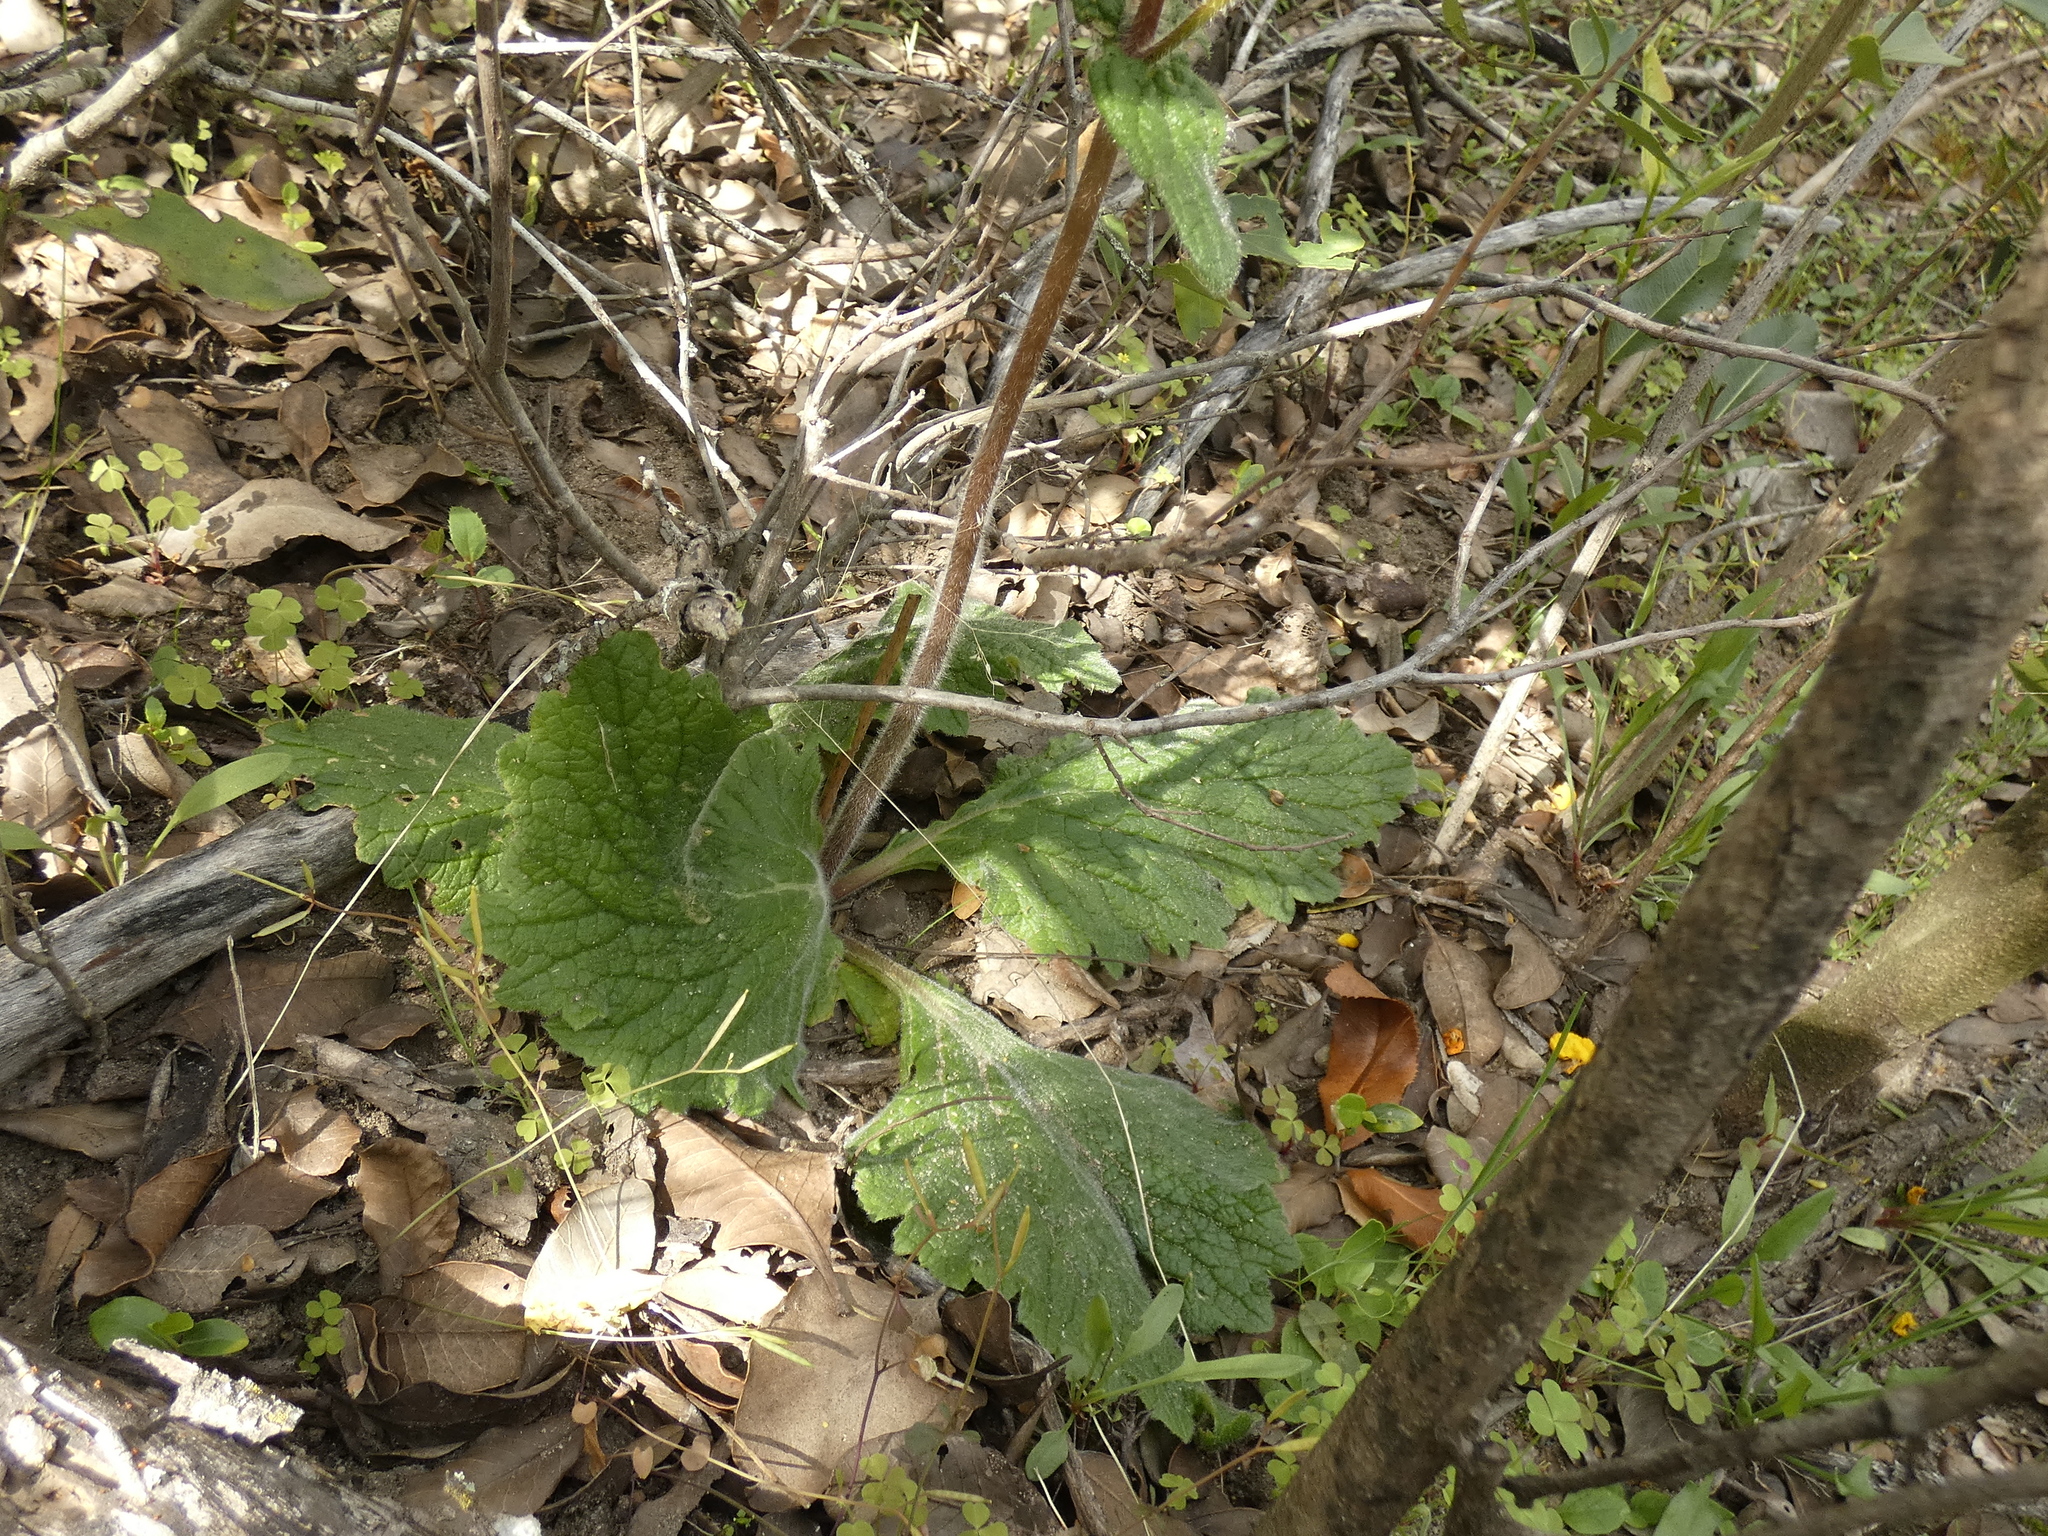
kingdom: Plantae
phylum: Tracheophyta
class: Magnoliopsida
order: Lamiales
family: Calceolariaceae
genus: Calceolaria
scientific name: Calceolaria corymbosa
